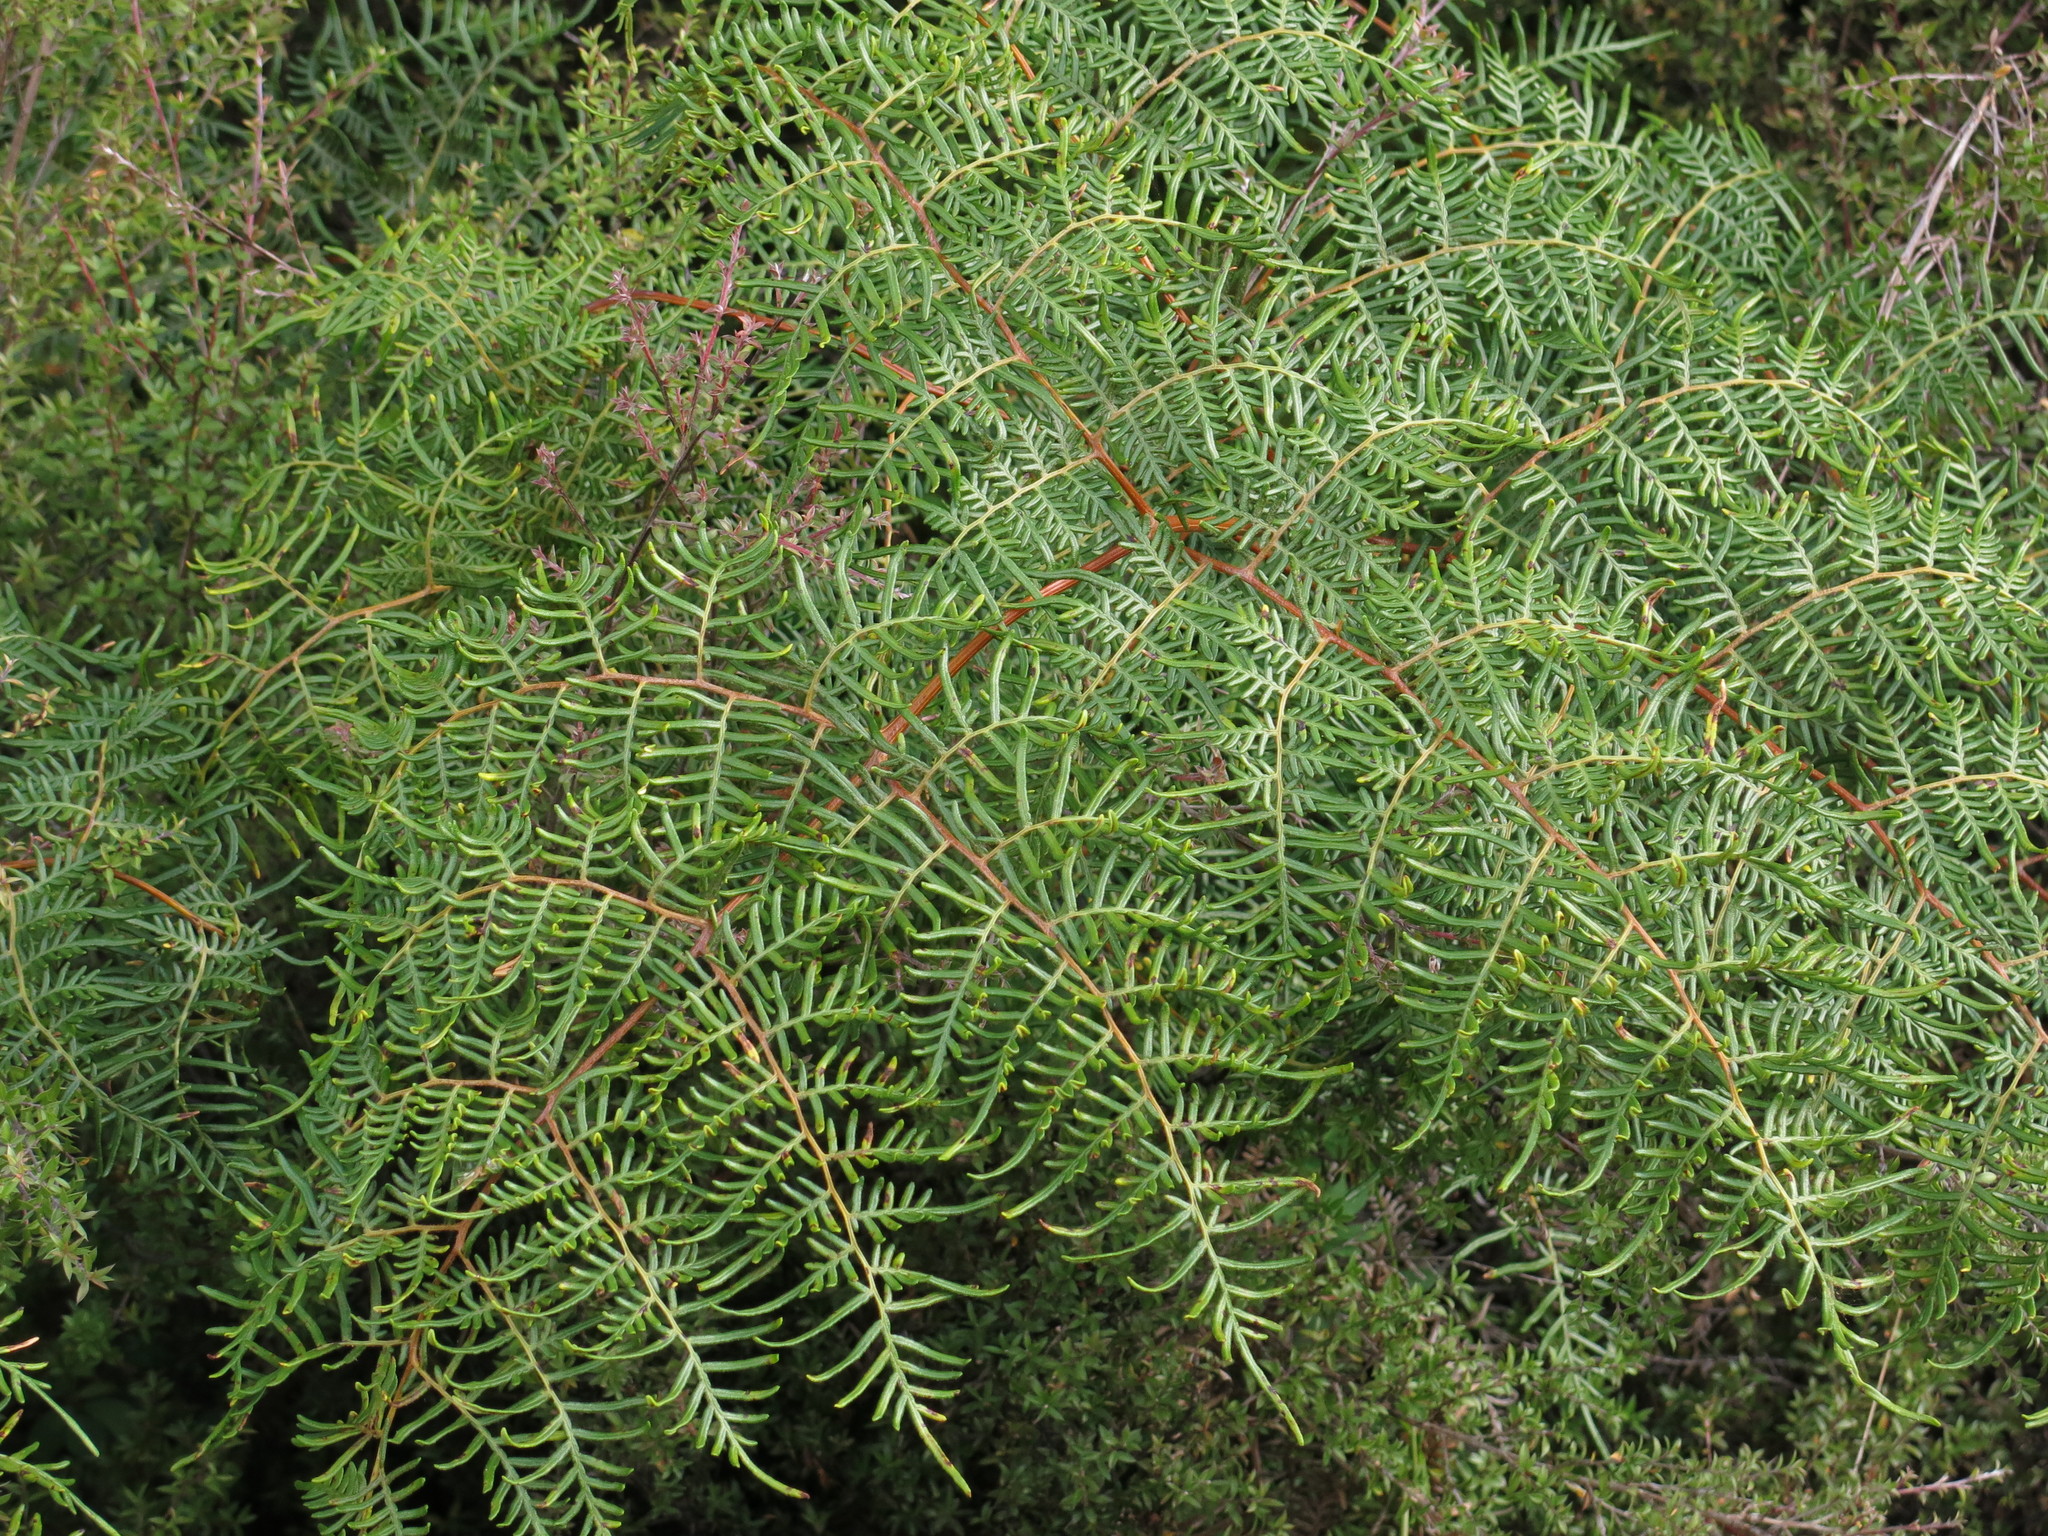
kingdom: Plantae
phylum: Tracheophyta
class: Polypodiopsida
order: Polypodiales
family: Dennstaedtiaceae
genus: Pteridium
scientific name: Pteridium esculentum
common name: Bracken fern
